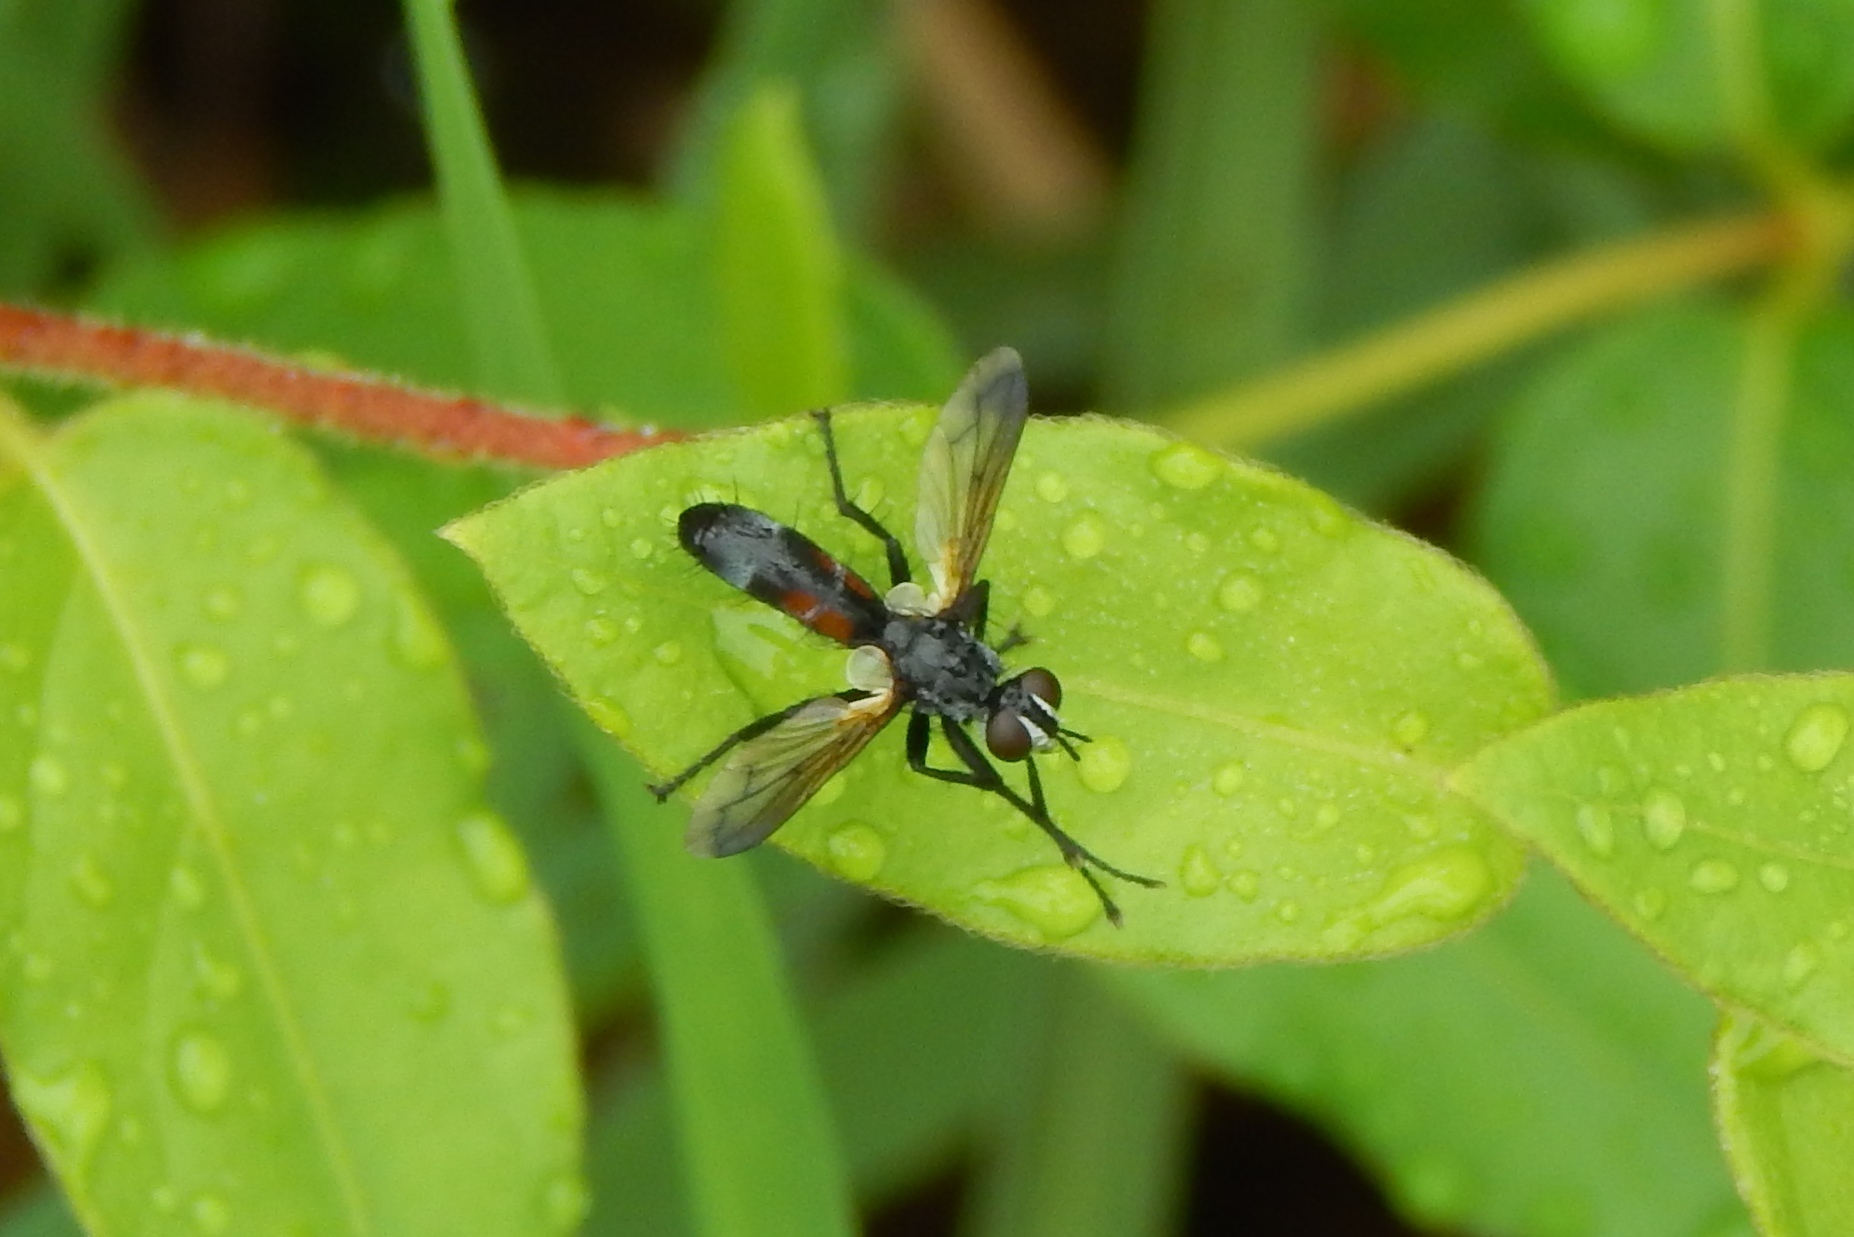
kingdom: Animalia
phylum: Arthropoda
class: Insecta
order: Diptera
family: Tachinidae
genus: Cylindromyia
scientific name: Cylindromyia
